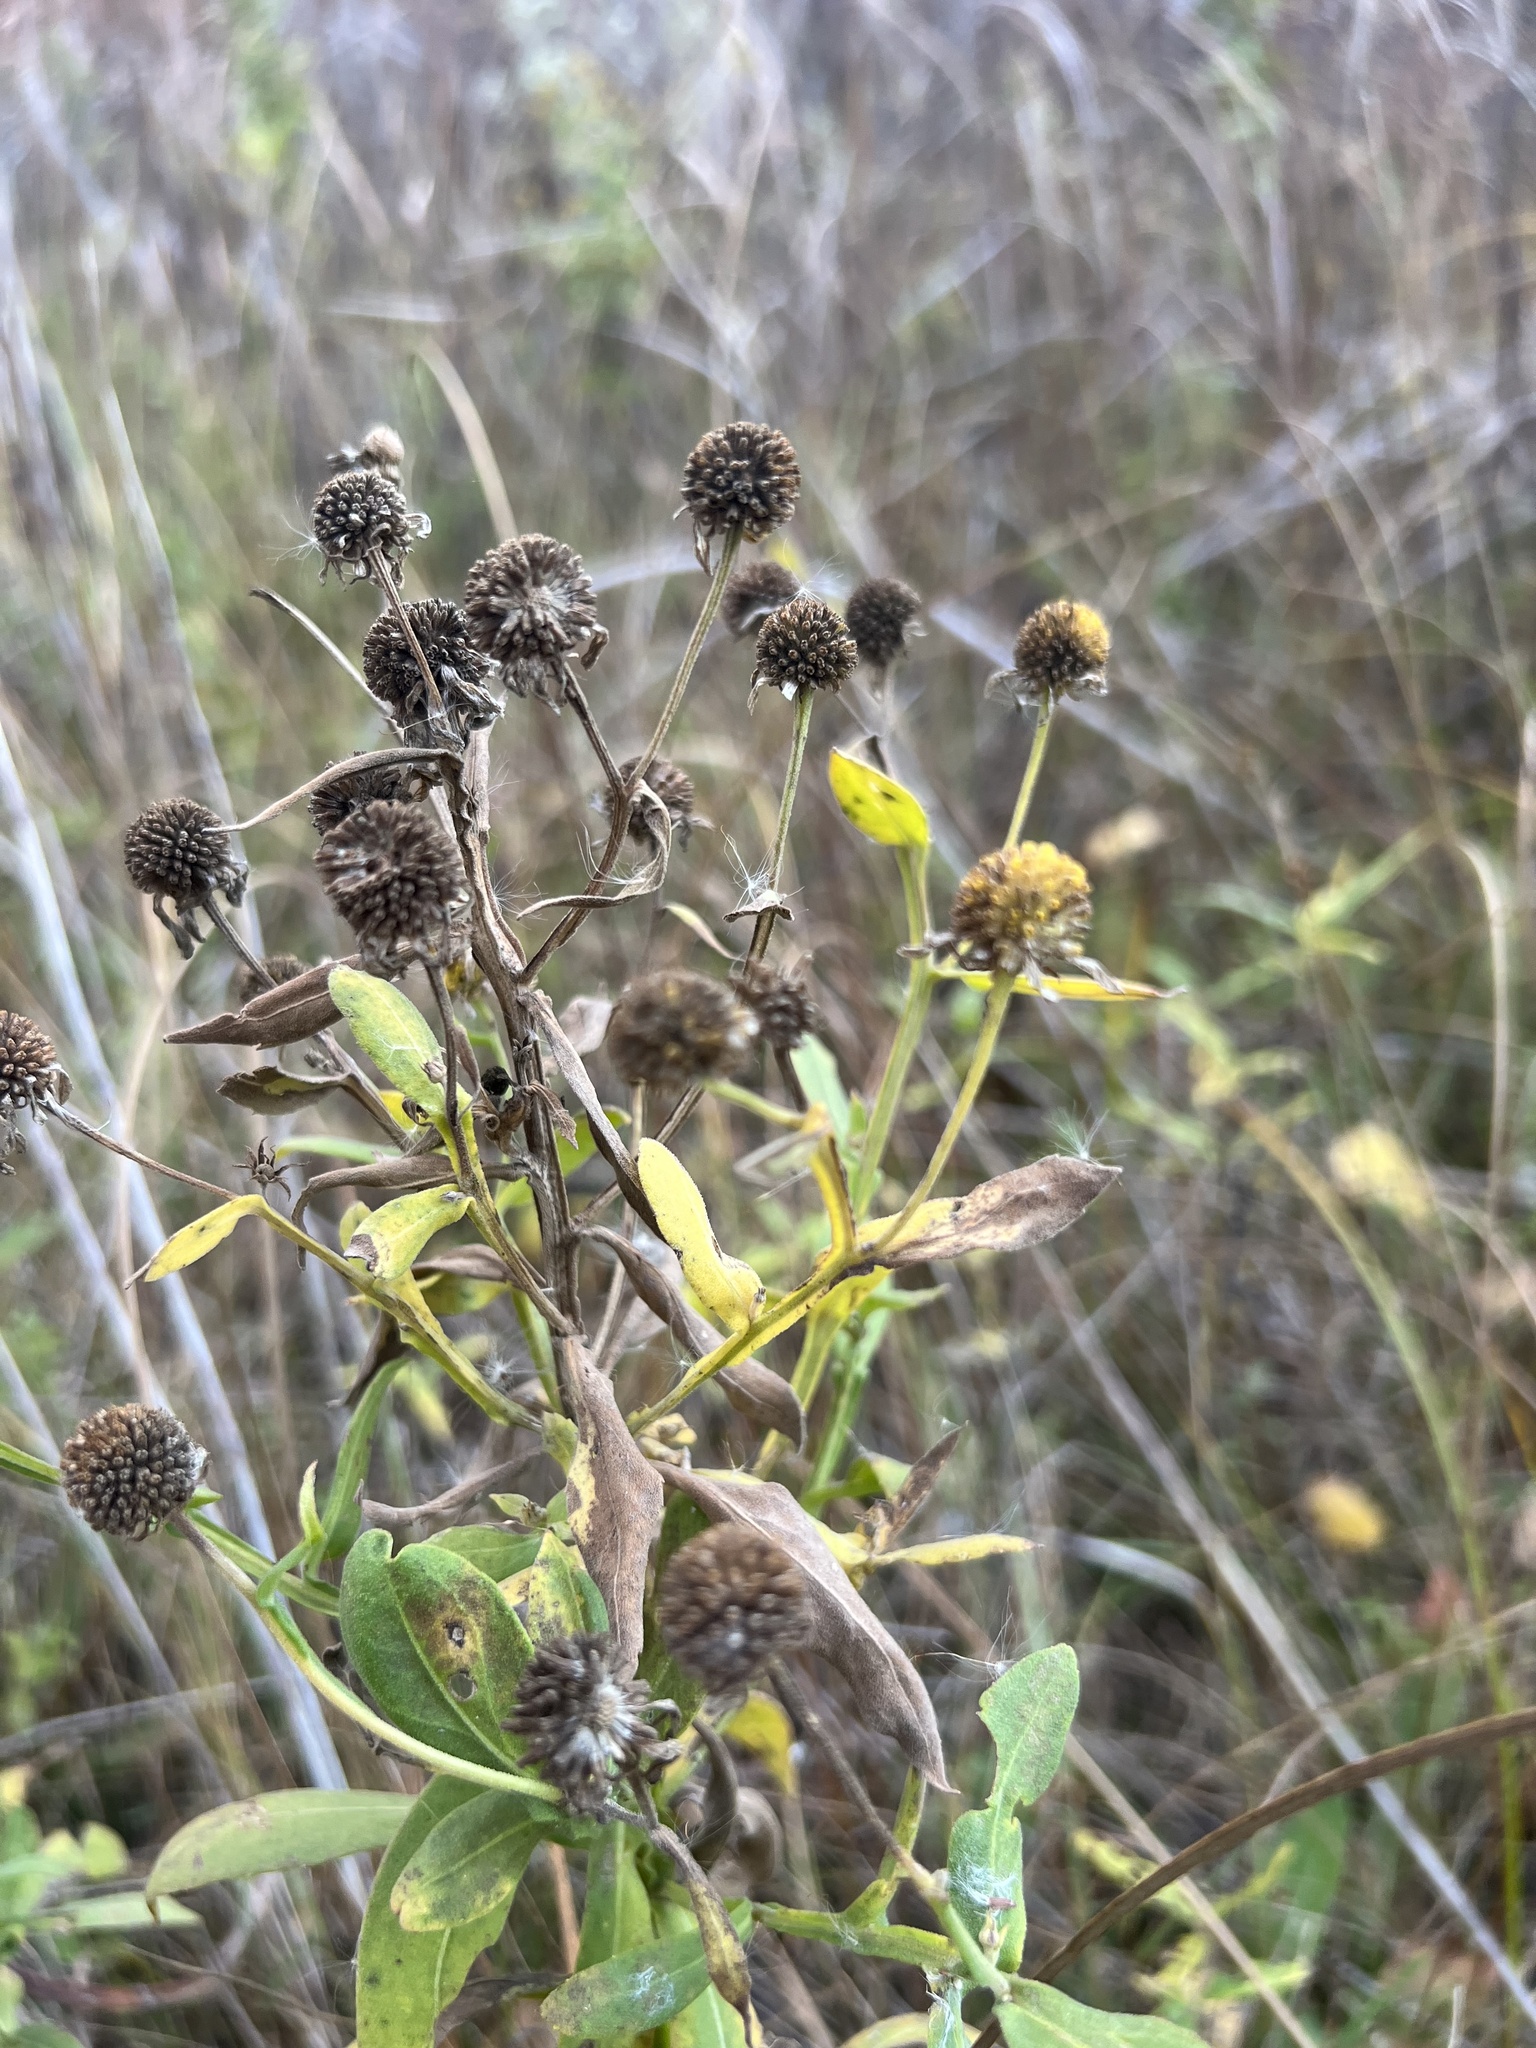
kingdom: Plantae
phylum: Tracheophyta
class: Magnoliopsida
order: Asterales
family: Asteraceae
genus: Helenium
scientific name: Helenium autumnale
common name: Sneezeweed
